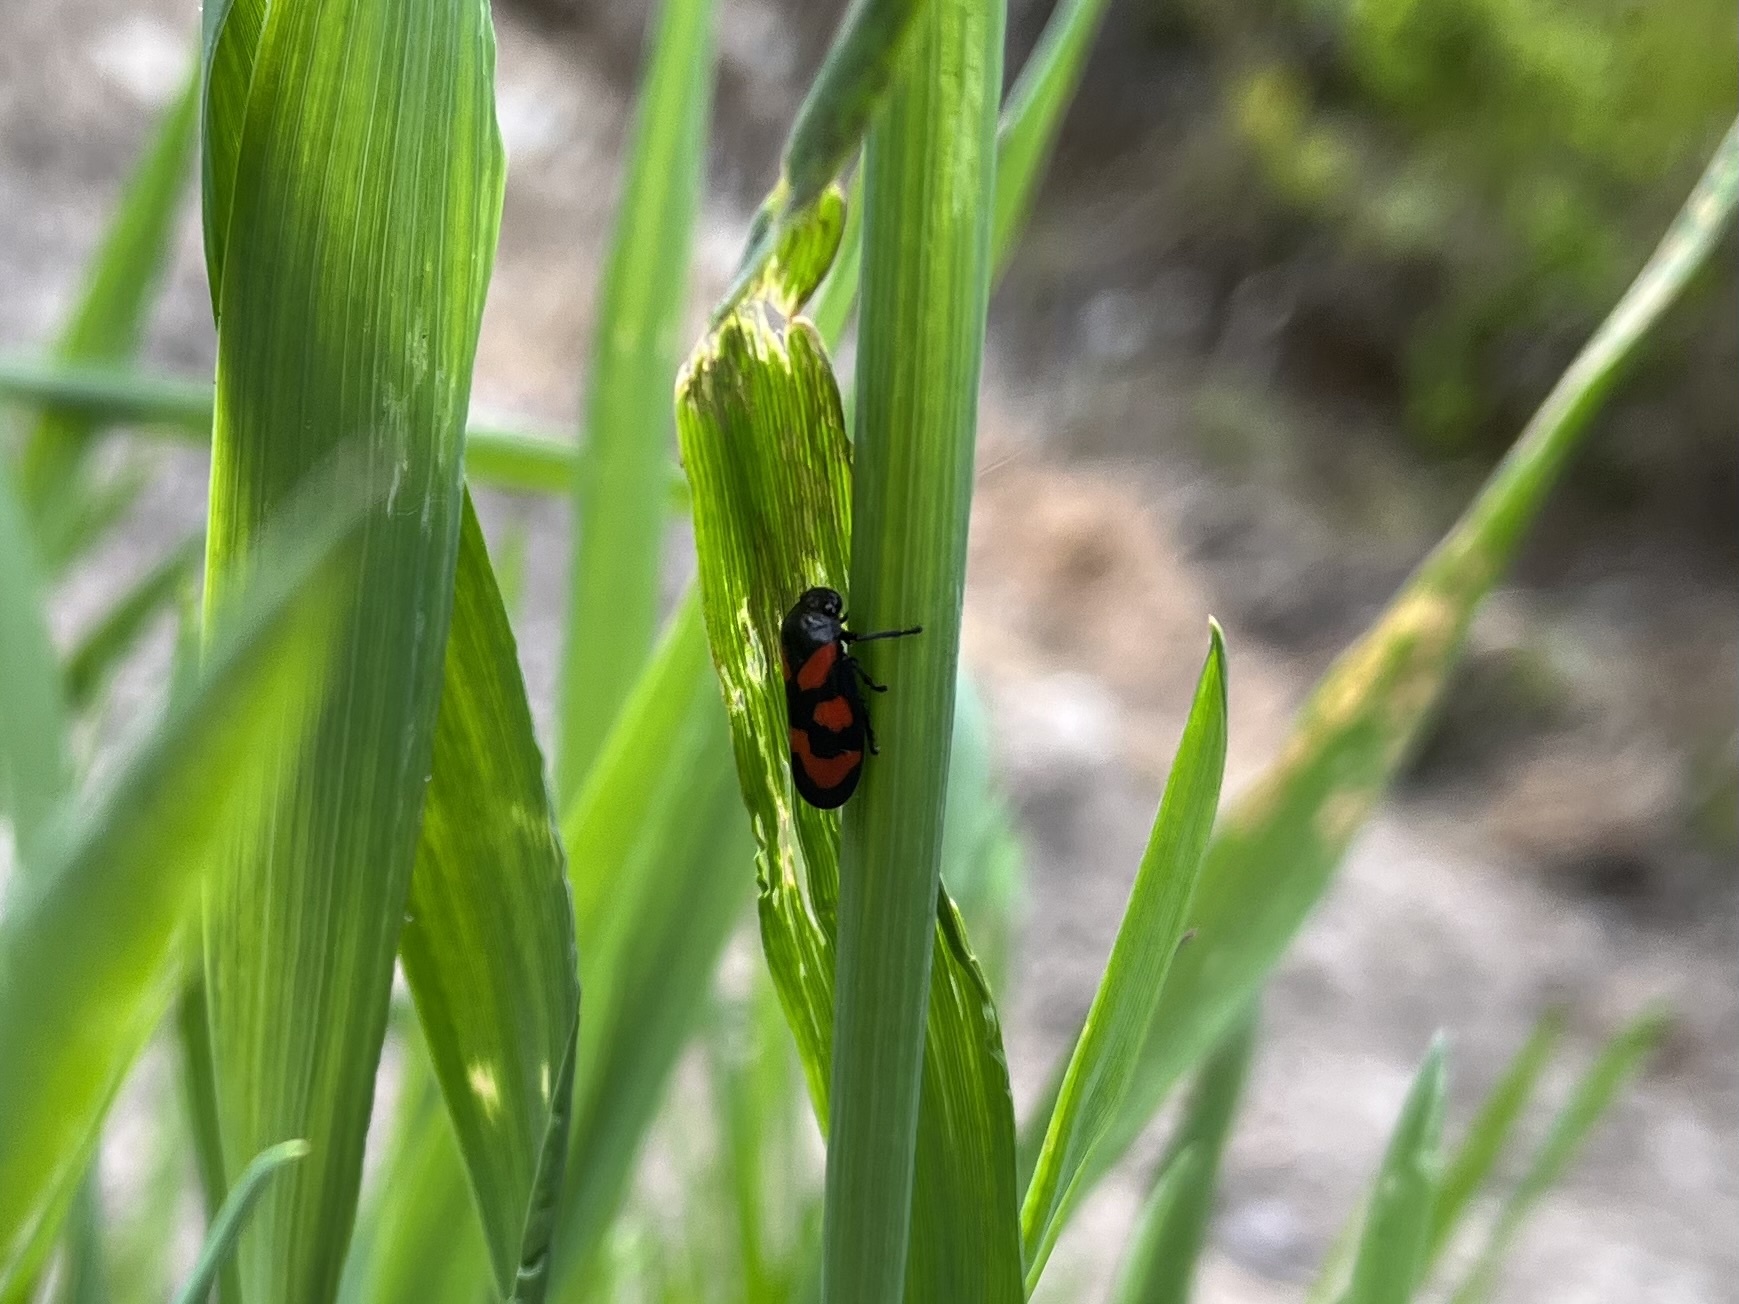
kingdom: Animalia
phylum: Arthropoda
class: Insecta
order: Hemiptera
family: Cercopidae
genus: Cercopis
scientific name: Cercopis vulnerata
